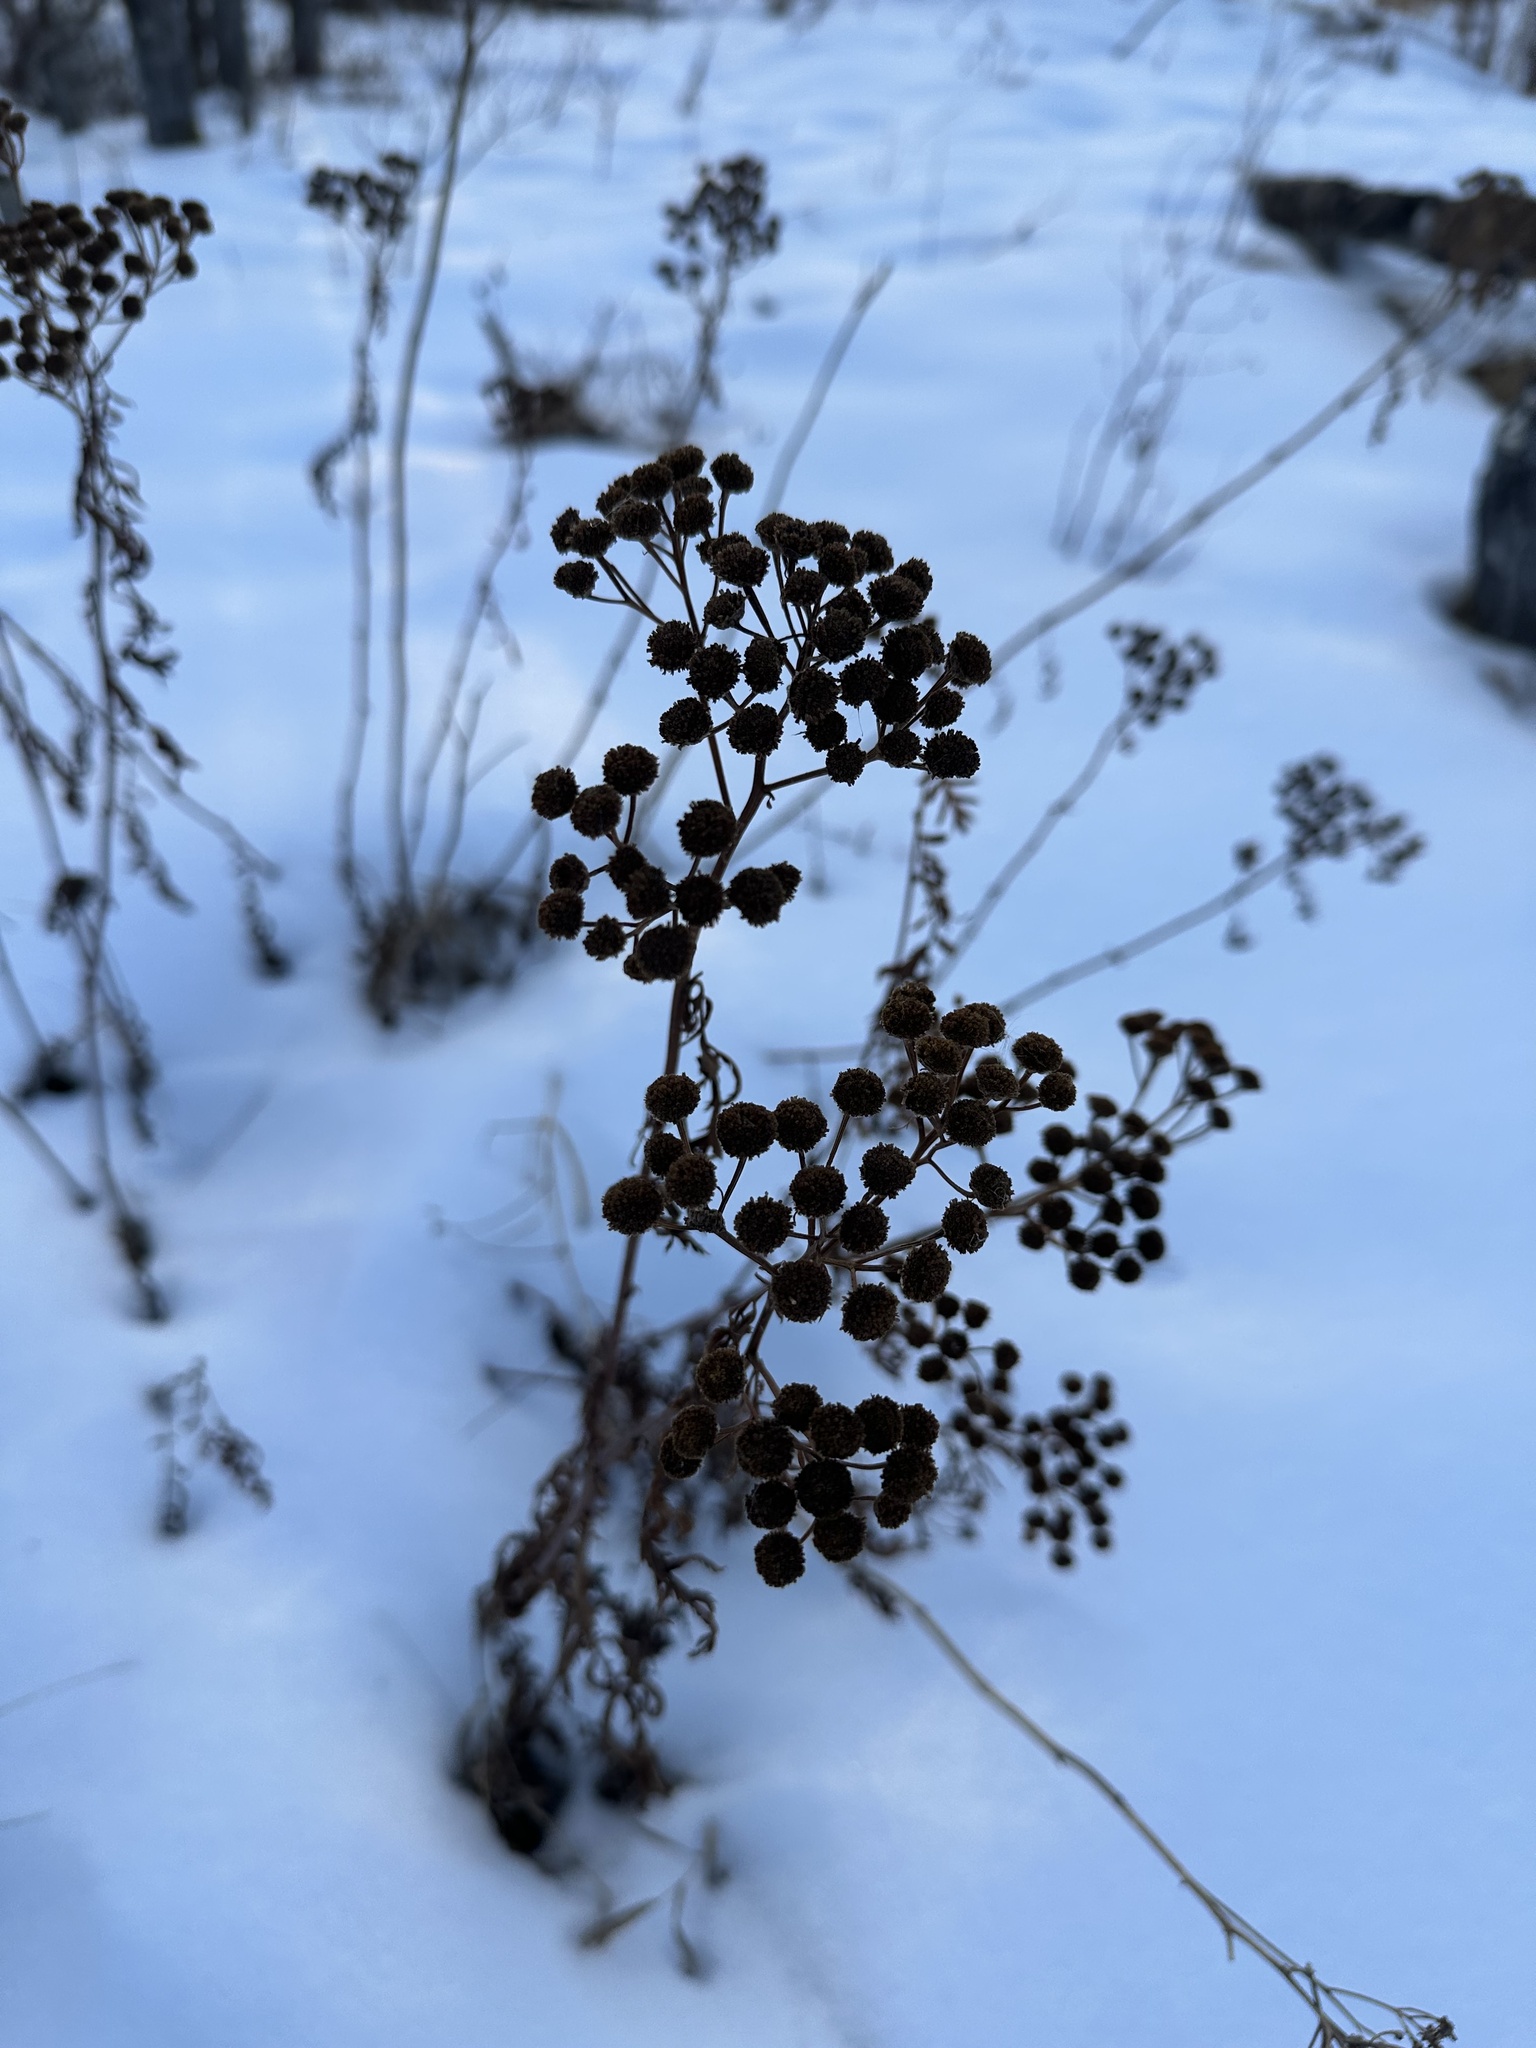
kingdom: Plantae
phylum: Tracheophyta
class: Magnoliopsida
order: Asterales
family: Asteraceae
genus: Tanacetum
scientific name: Tanacetum vulgare
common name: Common tansy
